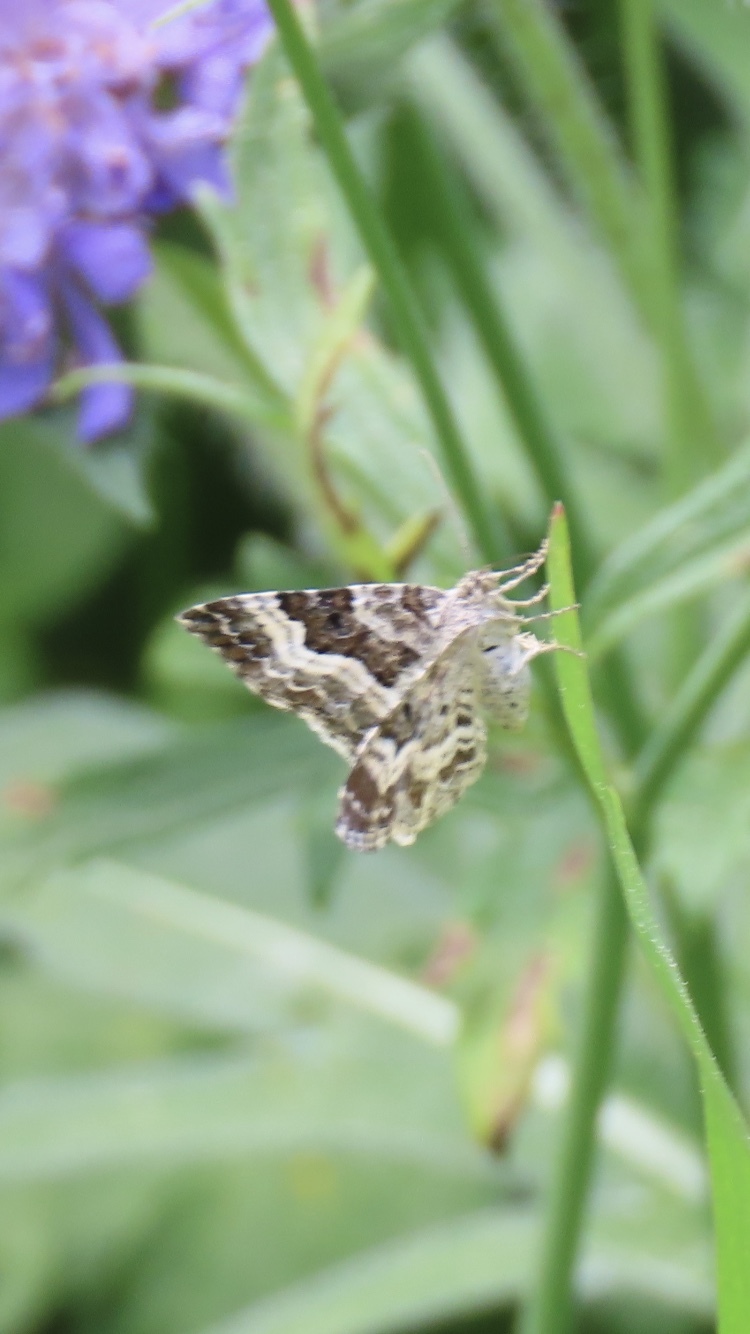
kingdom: Animalia
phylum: Arthropoda
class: Insecta
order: Lepidoptera
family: Geometridae
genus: Epirrhoe
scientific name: Epirrhoe alternata
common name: Common carpet
